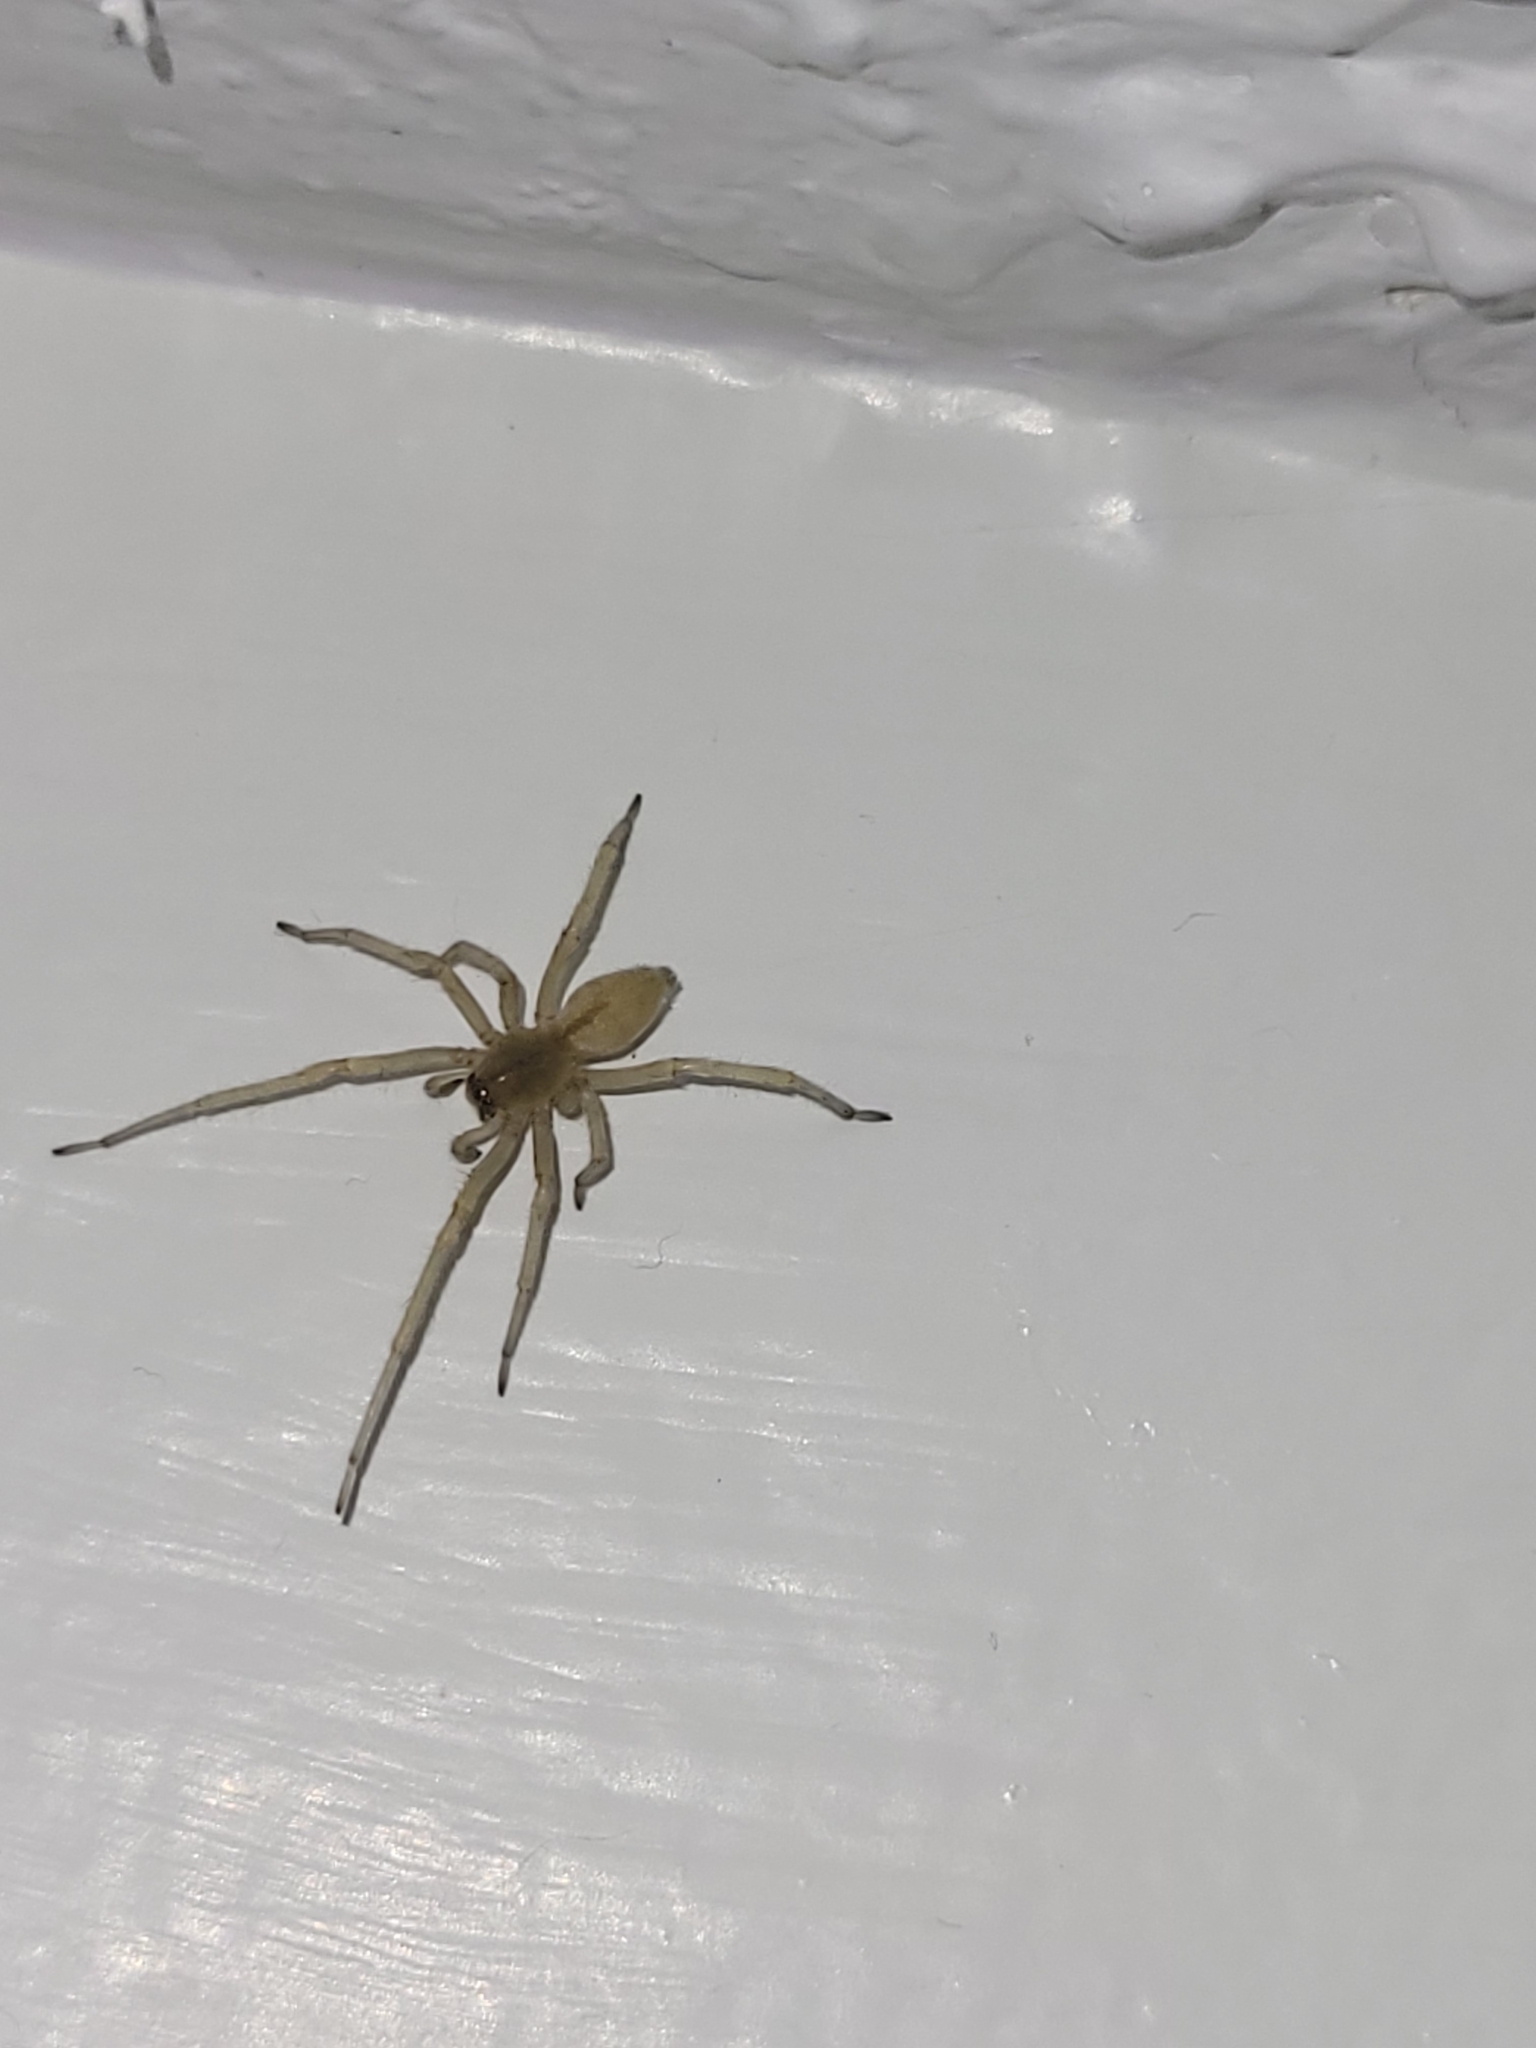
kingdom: Animalia
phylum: Arthropoda
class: Arachnida
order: Araneae
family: Cheiracanthiidae
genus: Cheiracanthium
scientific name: Cheiracanthium
